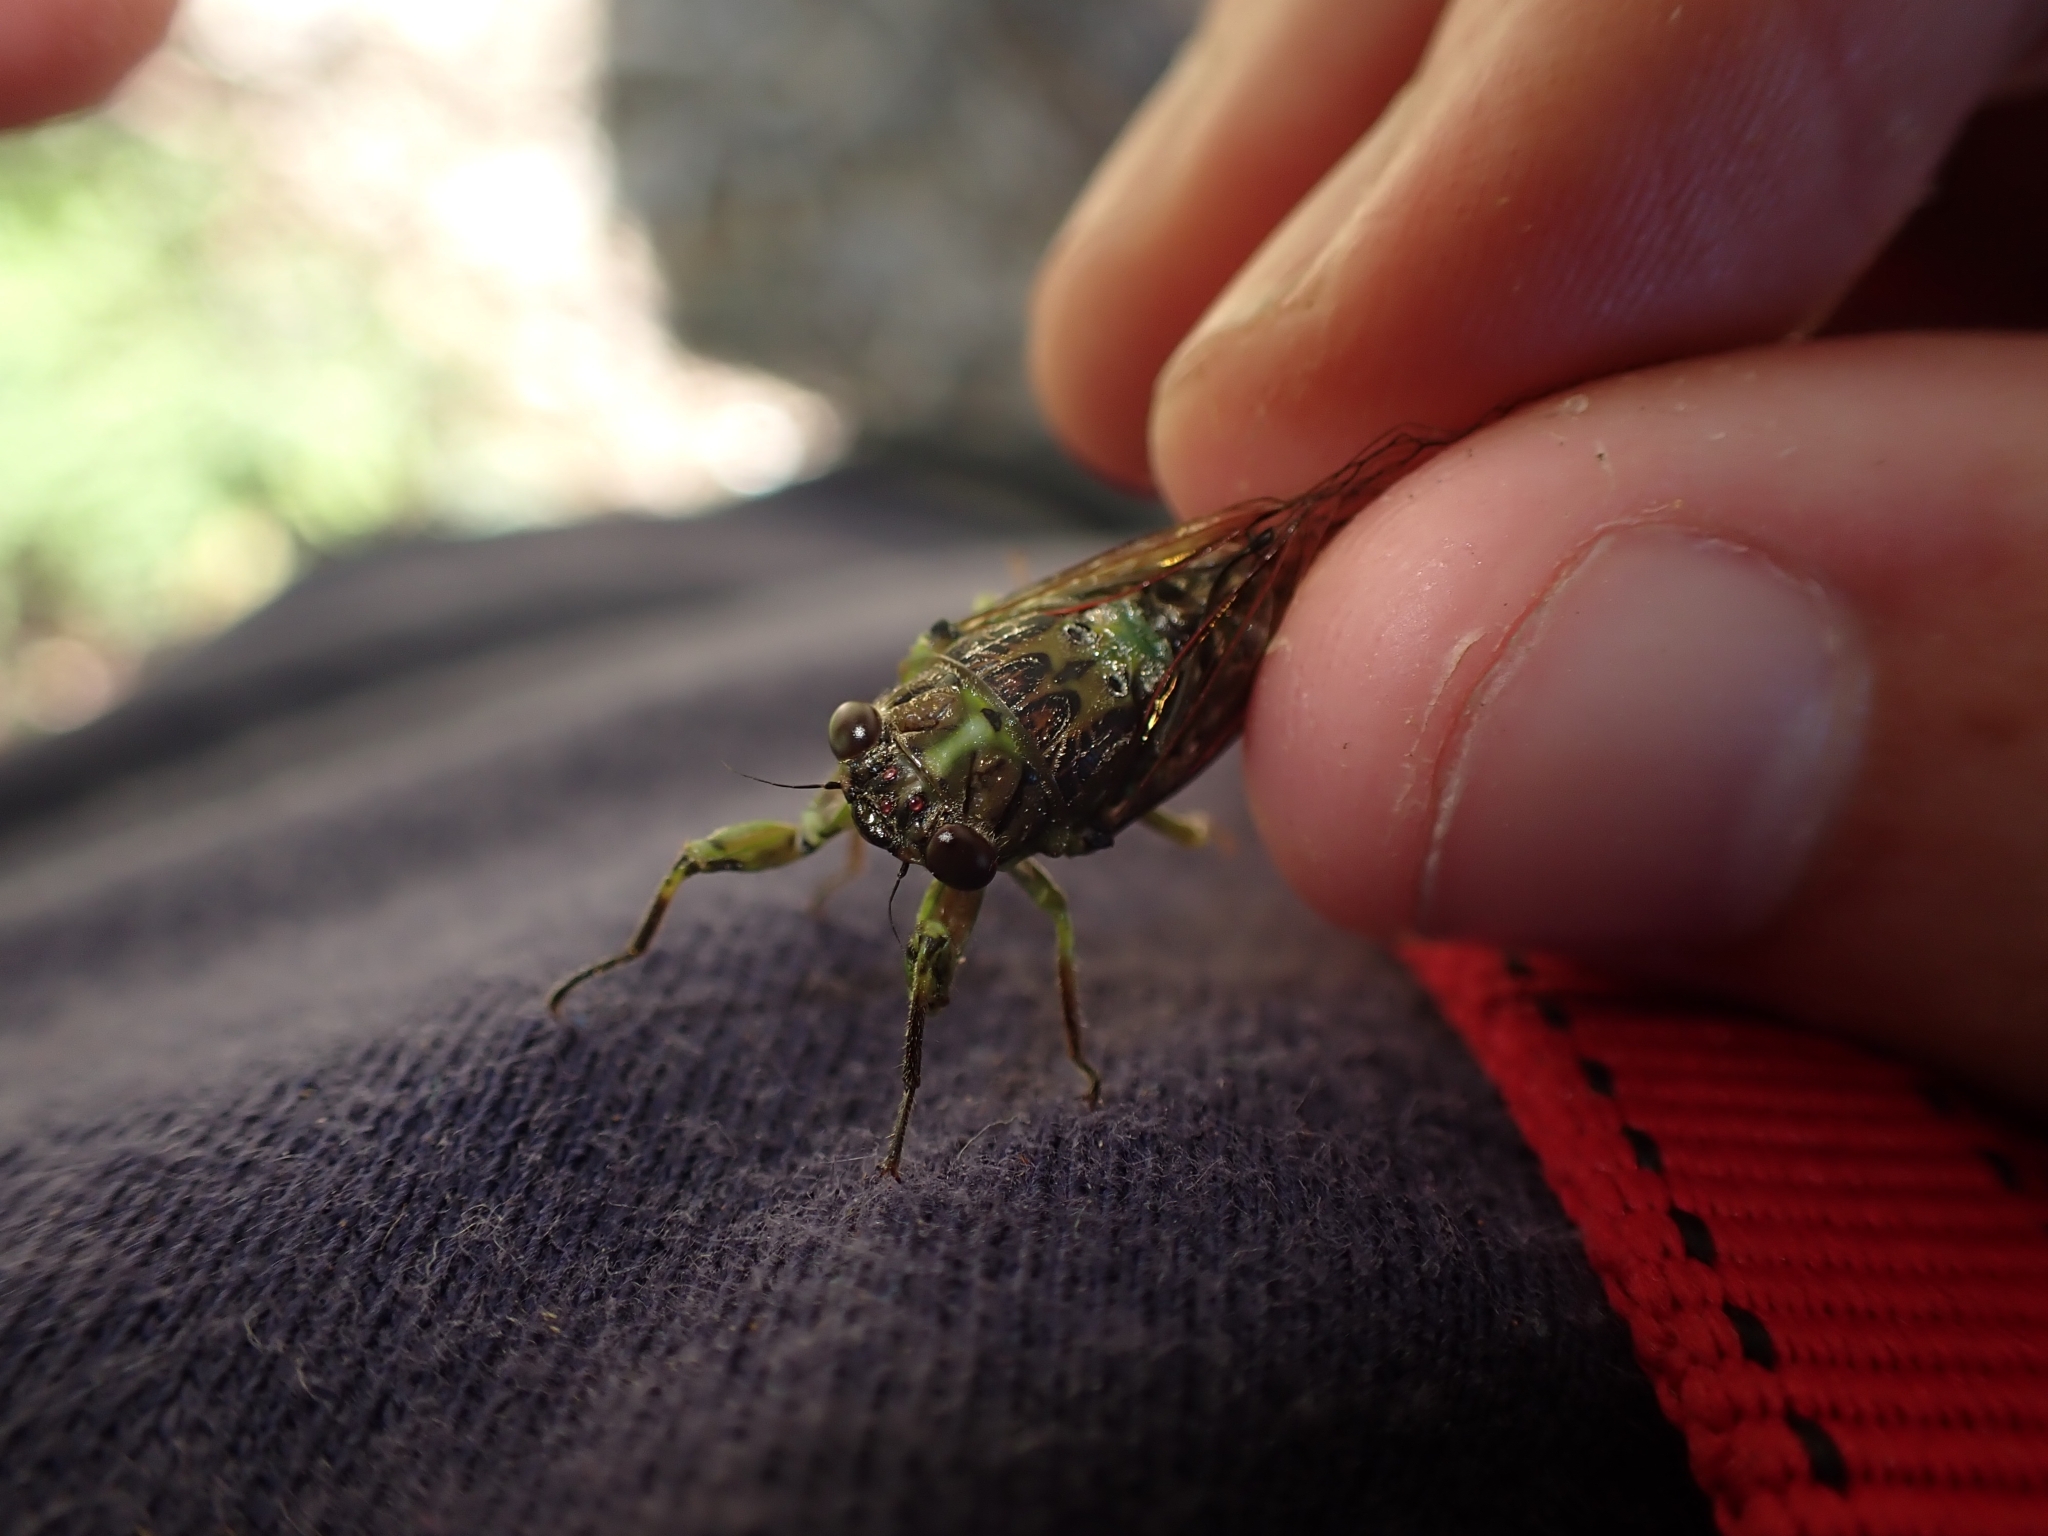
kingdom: Animalia
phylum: Arthropoda
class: Insecta
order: Hemiptera
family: Cicadidae
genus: Kikihia
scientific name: Kikihia scutellaris
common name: Lesser bronze cicada
